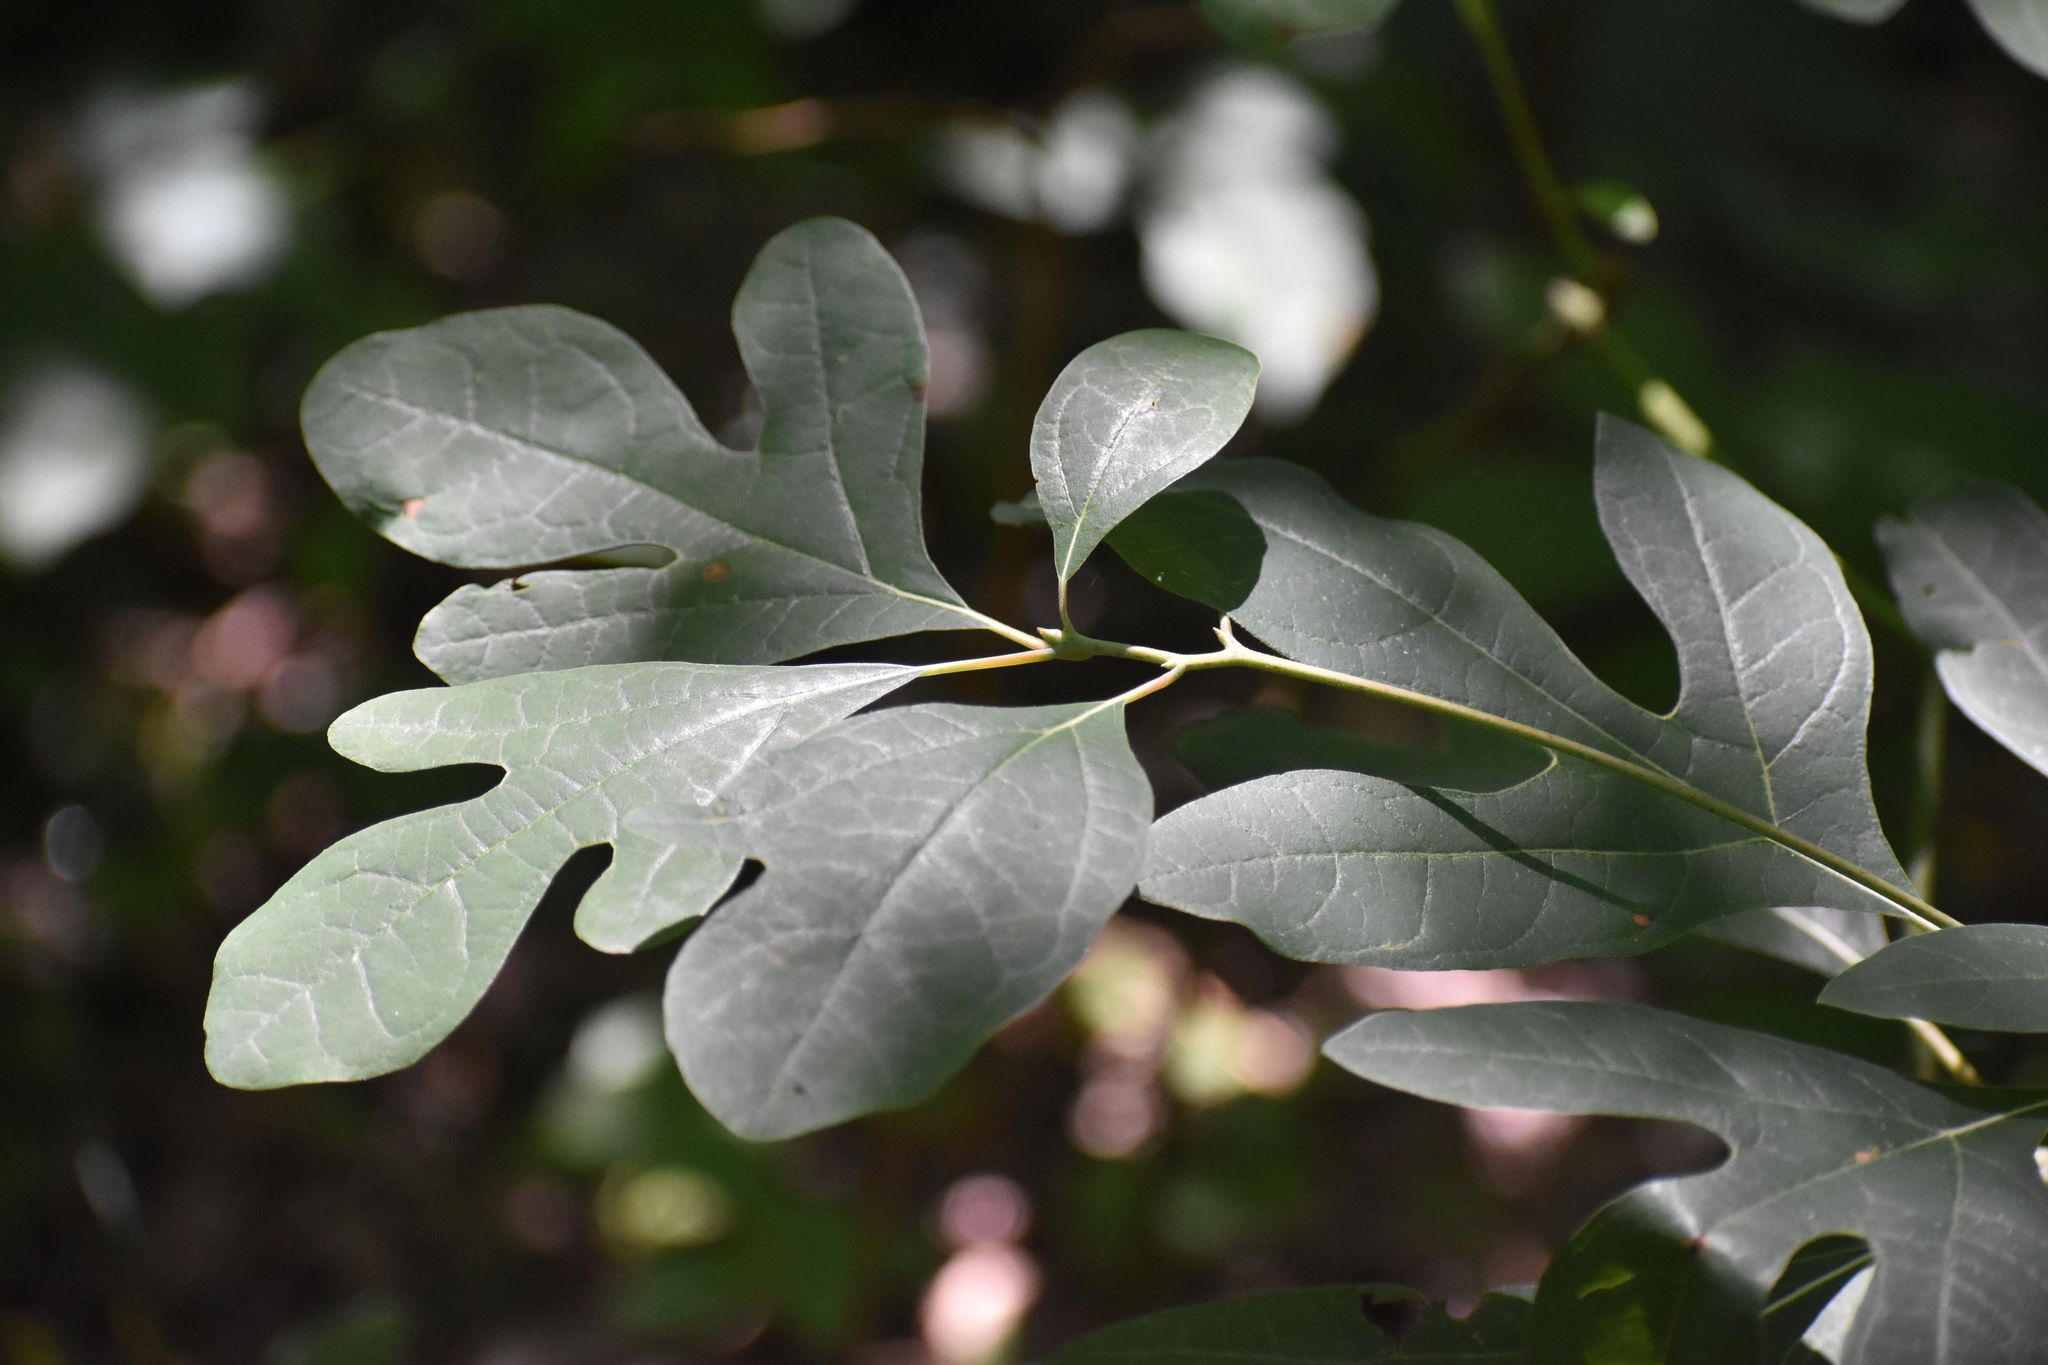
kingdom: Plantae
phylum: Tracheophyta
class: Magnoliopsida
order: Laurales
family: Lauraceae
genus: Sassafras
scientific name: Sassafras albidum
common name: Sassafras
